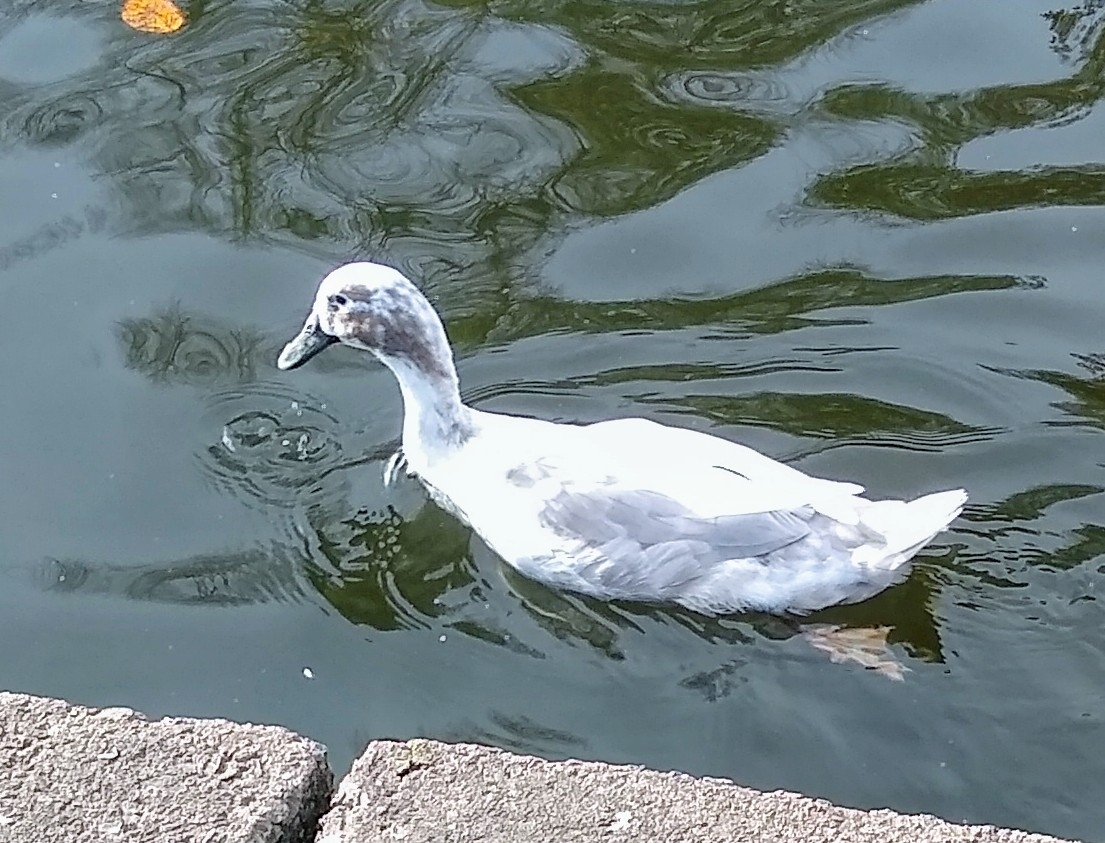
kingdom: Animalia
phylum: Chordata
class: Aves
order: Anseriformes
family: Anatidae
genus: Anas
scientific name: Anas platyrhynchos
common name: Mallard
